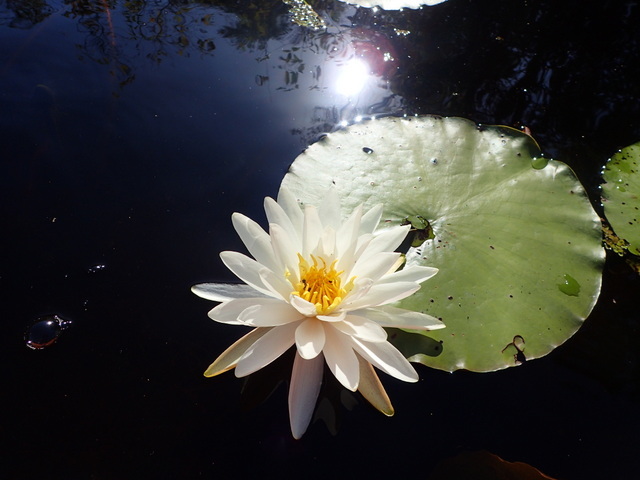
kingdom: Plantae
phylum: Tracheophyta
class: Magnoliopsida
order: Nymphaeales
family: Nymphaeaceae
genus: Nymphaea
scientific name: Nymphaea odorata
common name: Fragrant water-lily
